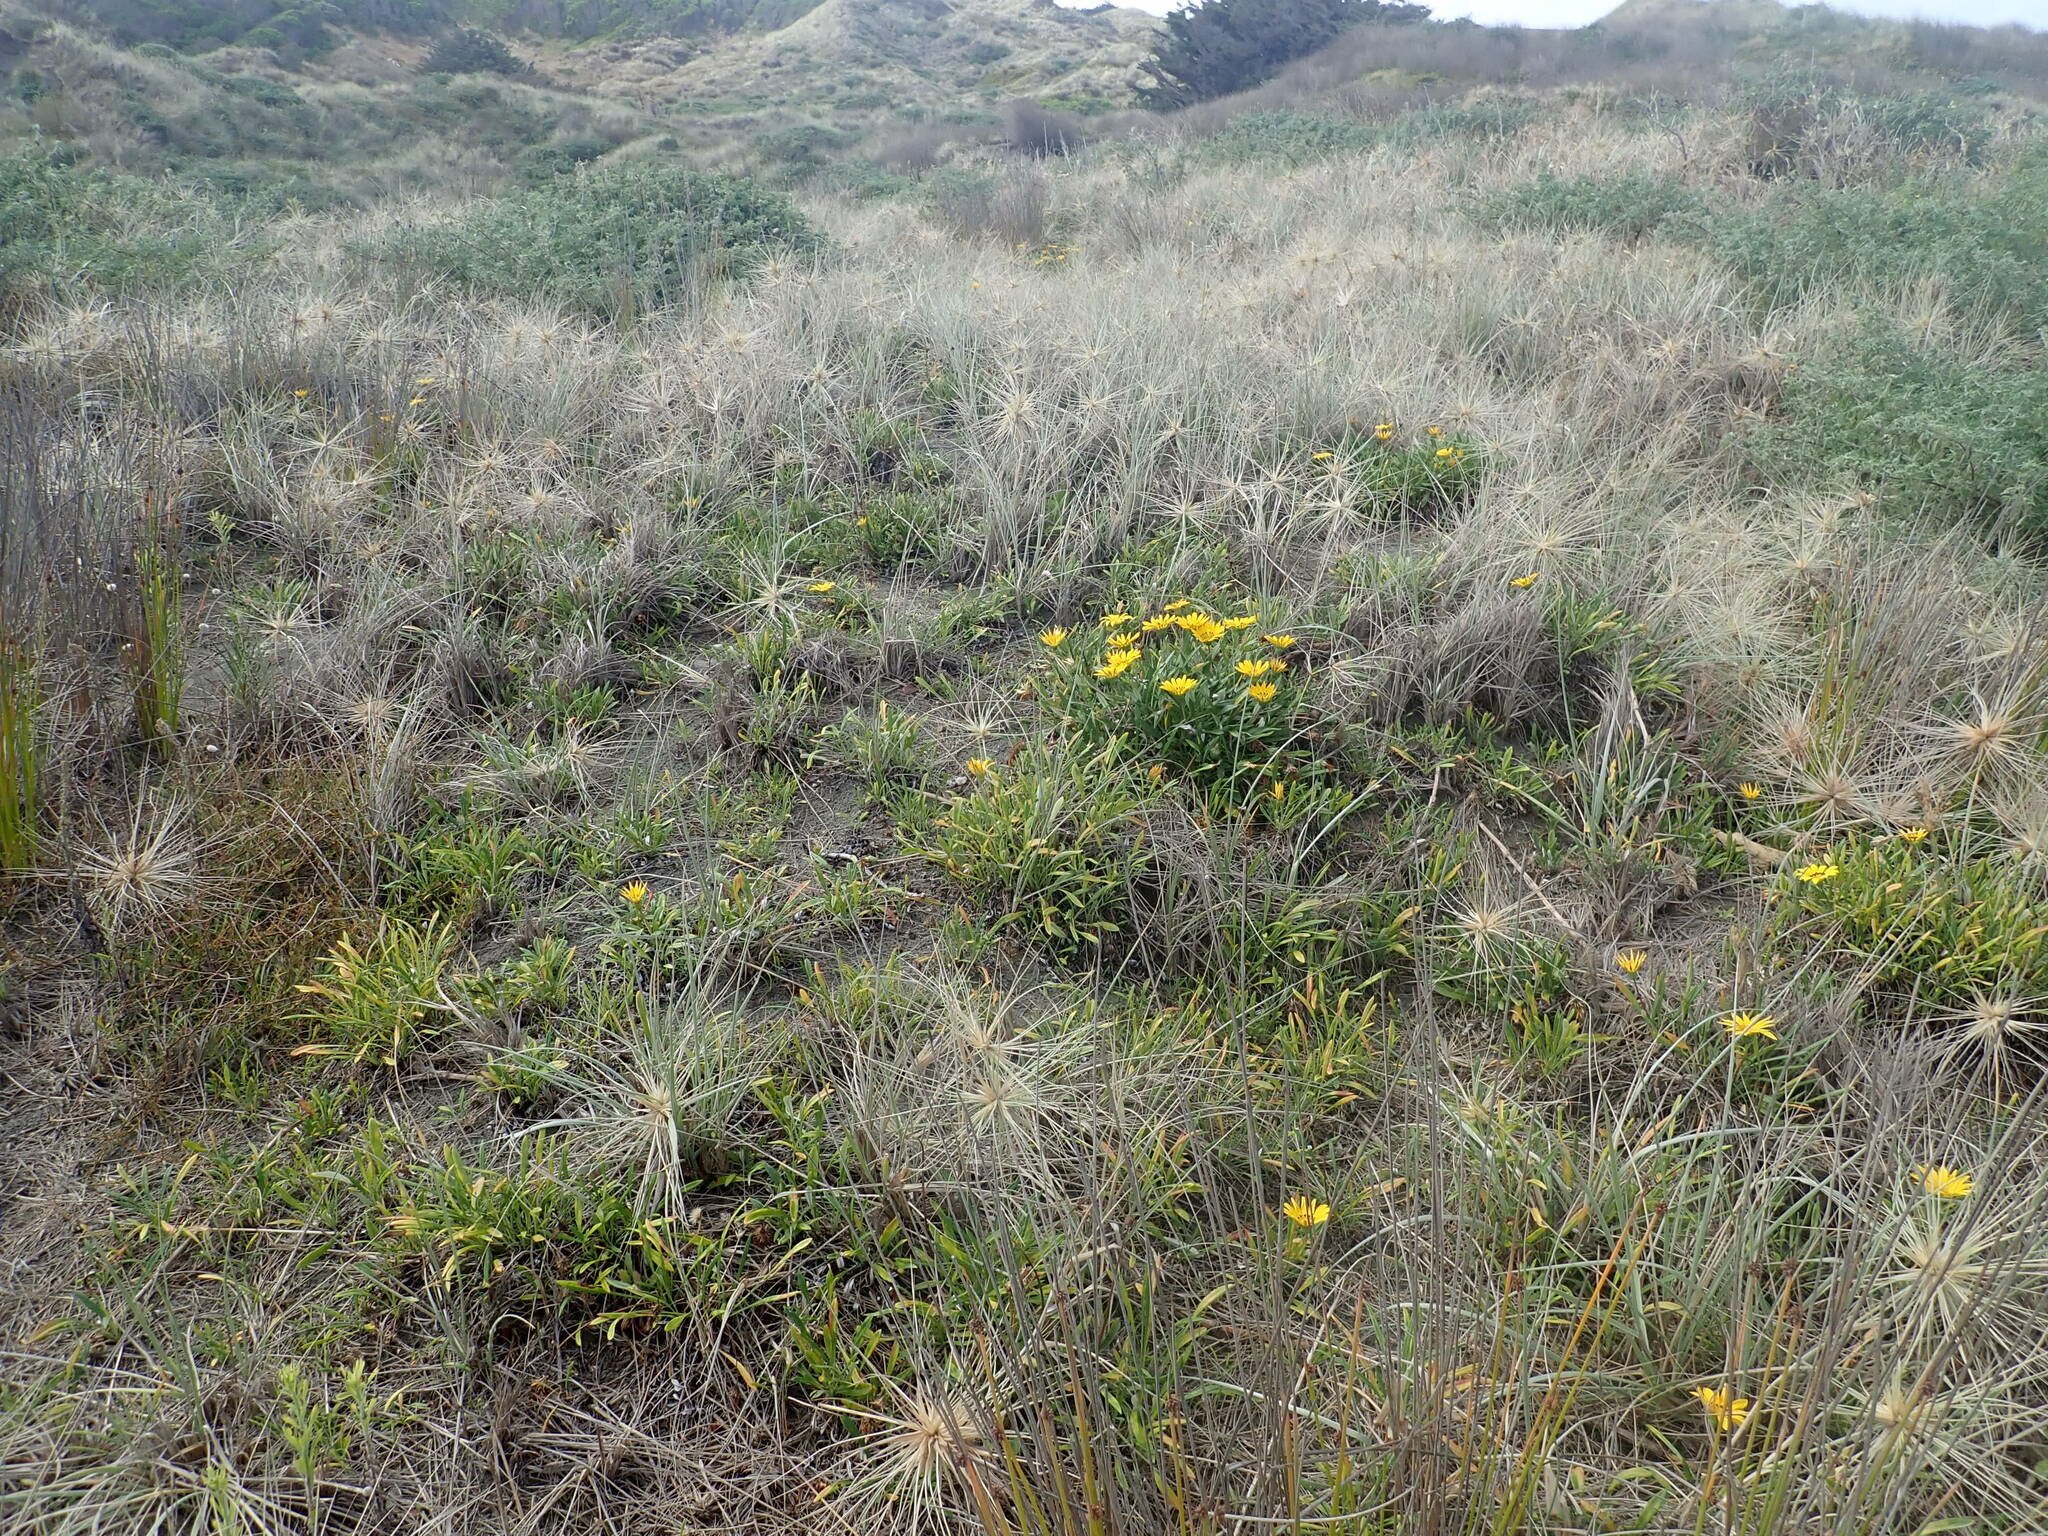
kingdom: Plantae
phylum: Tracheophyta
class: Magnoliopsida
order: Asterales
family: Asteraceae
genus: Gazania
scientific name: Gazania splendens
